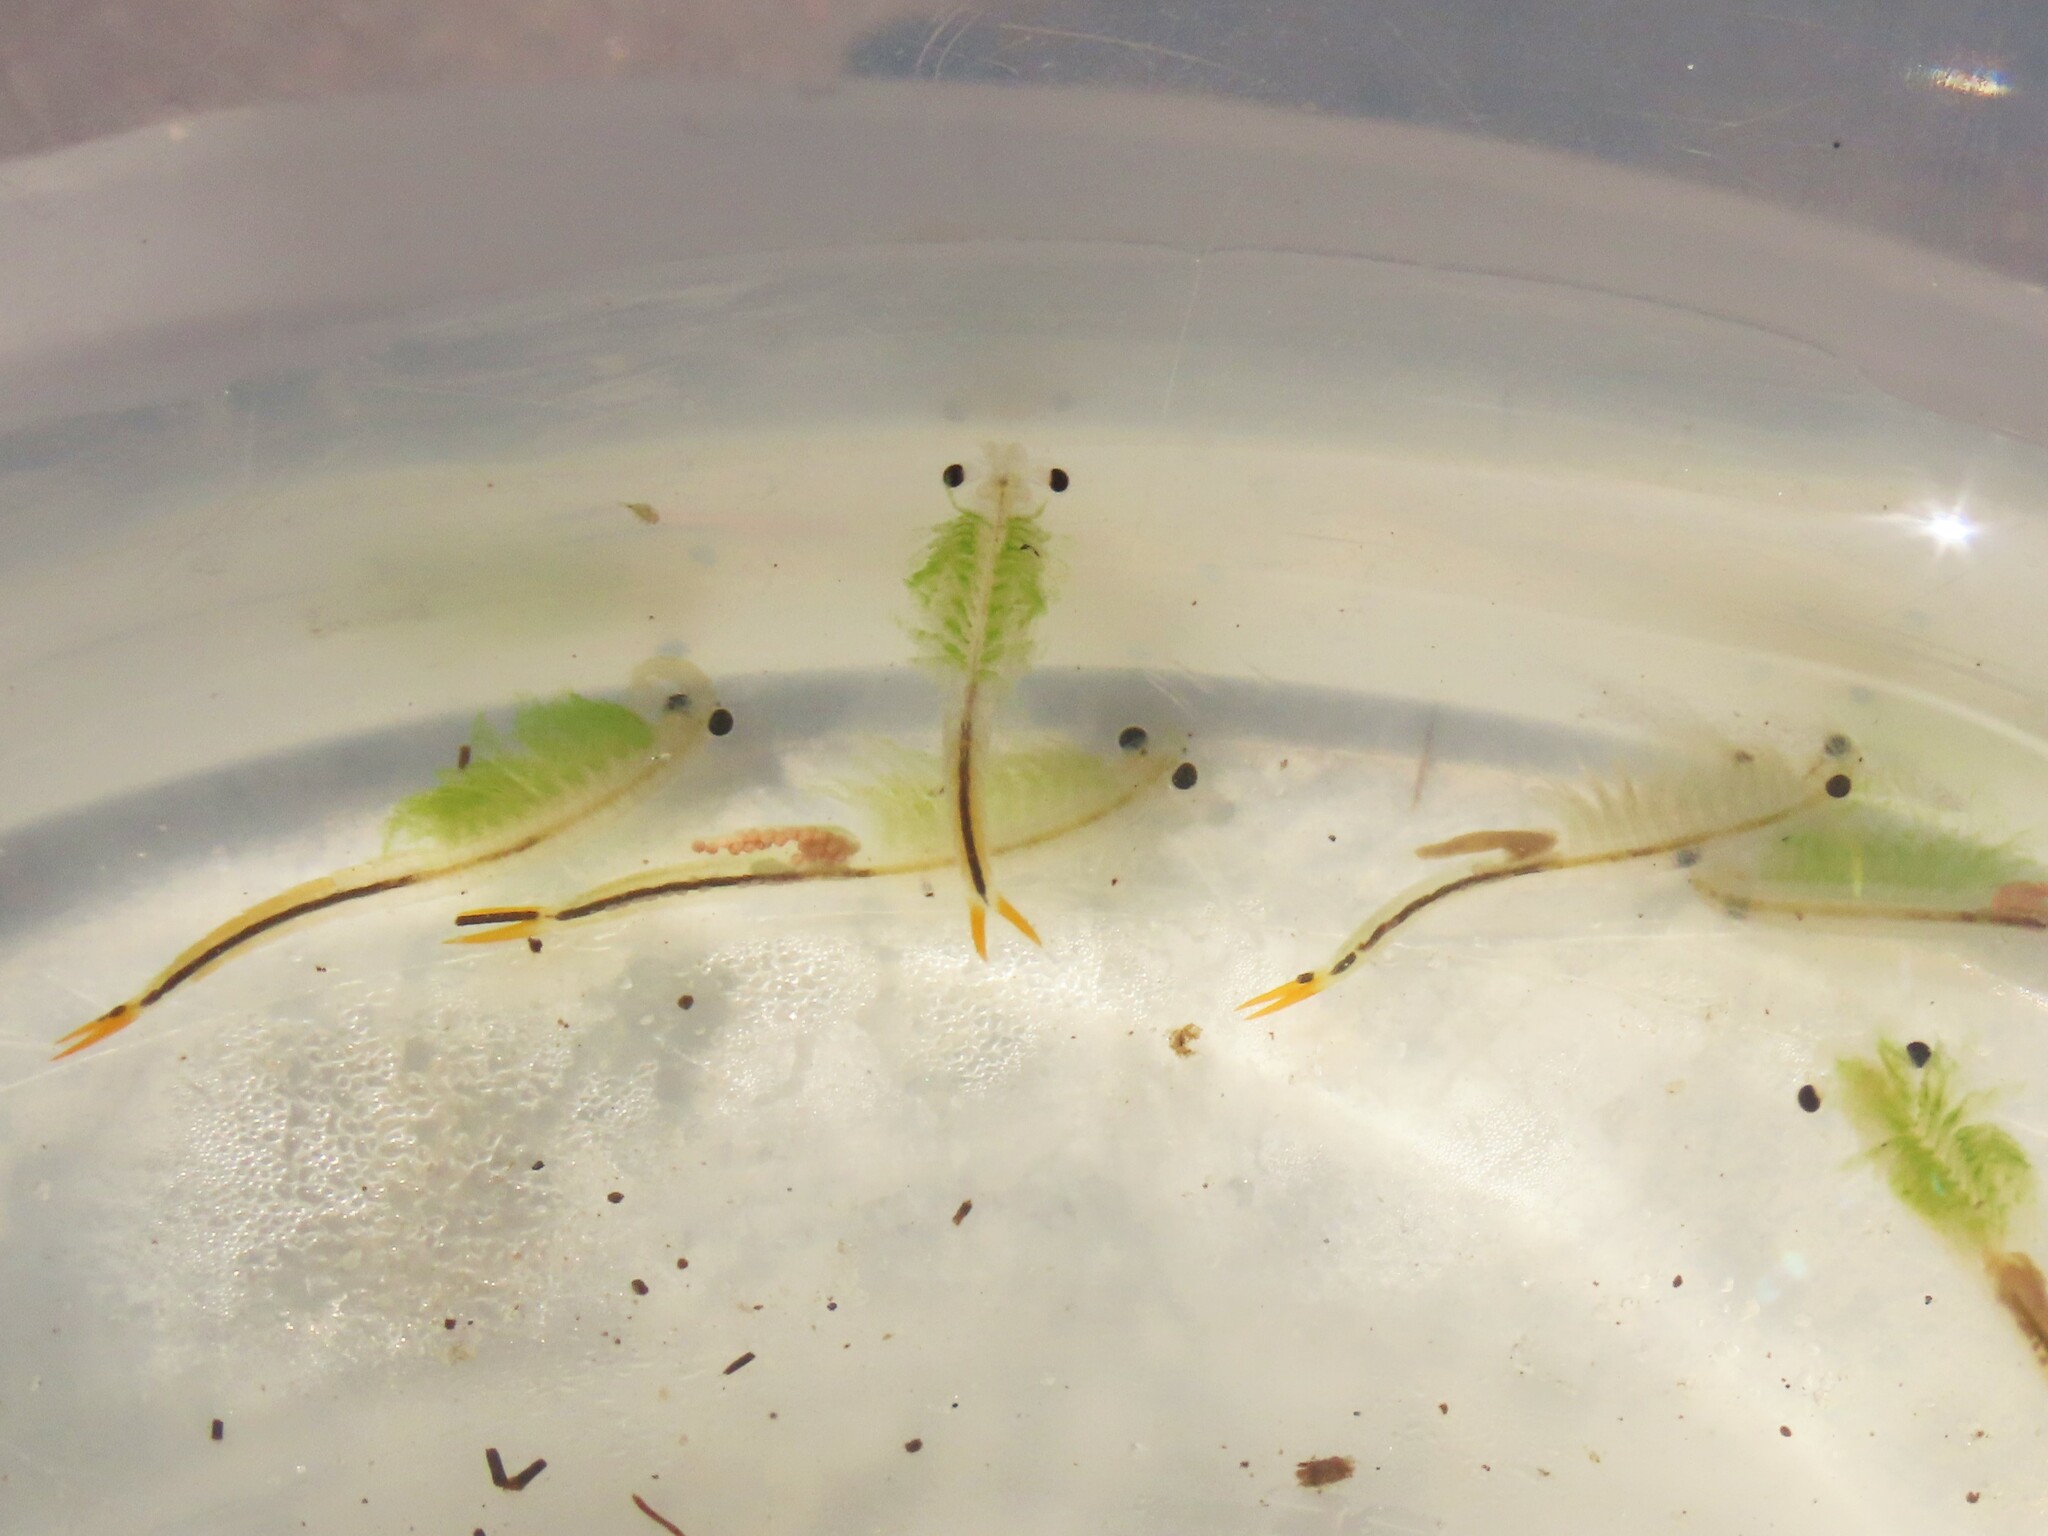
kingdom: Animalia
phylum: Arthropoda
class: Branchiopoda
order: Anostraca
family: Streptocephalidae
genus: Streptocephalus
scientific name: Streptocephalus sealii
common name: Spiny-tail fairy shrimp
